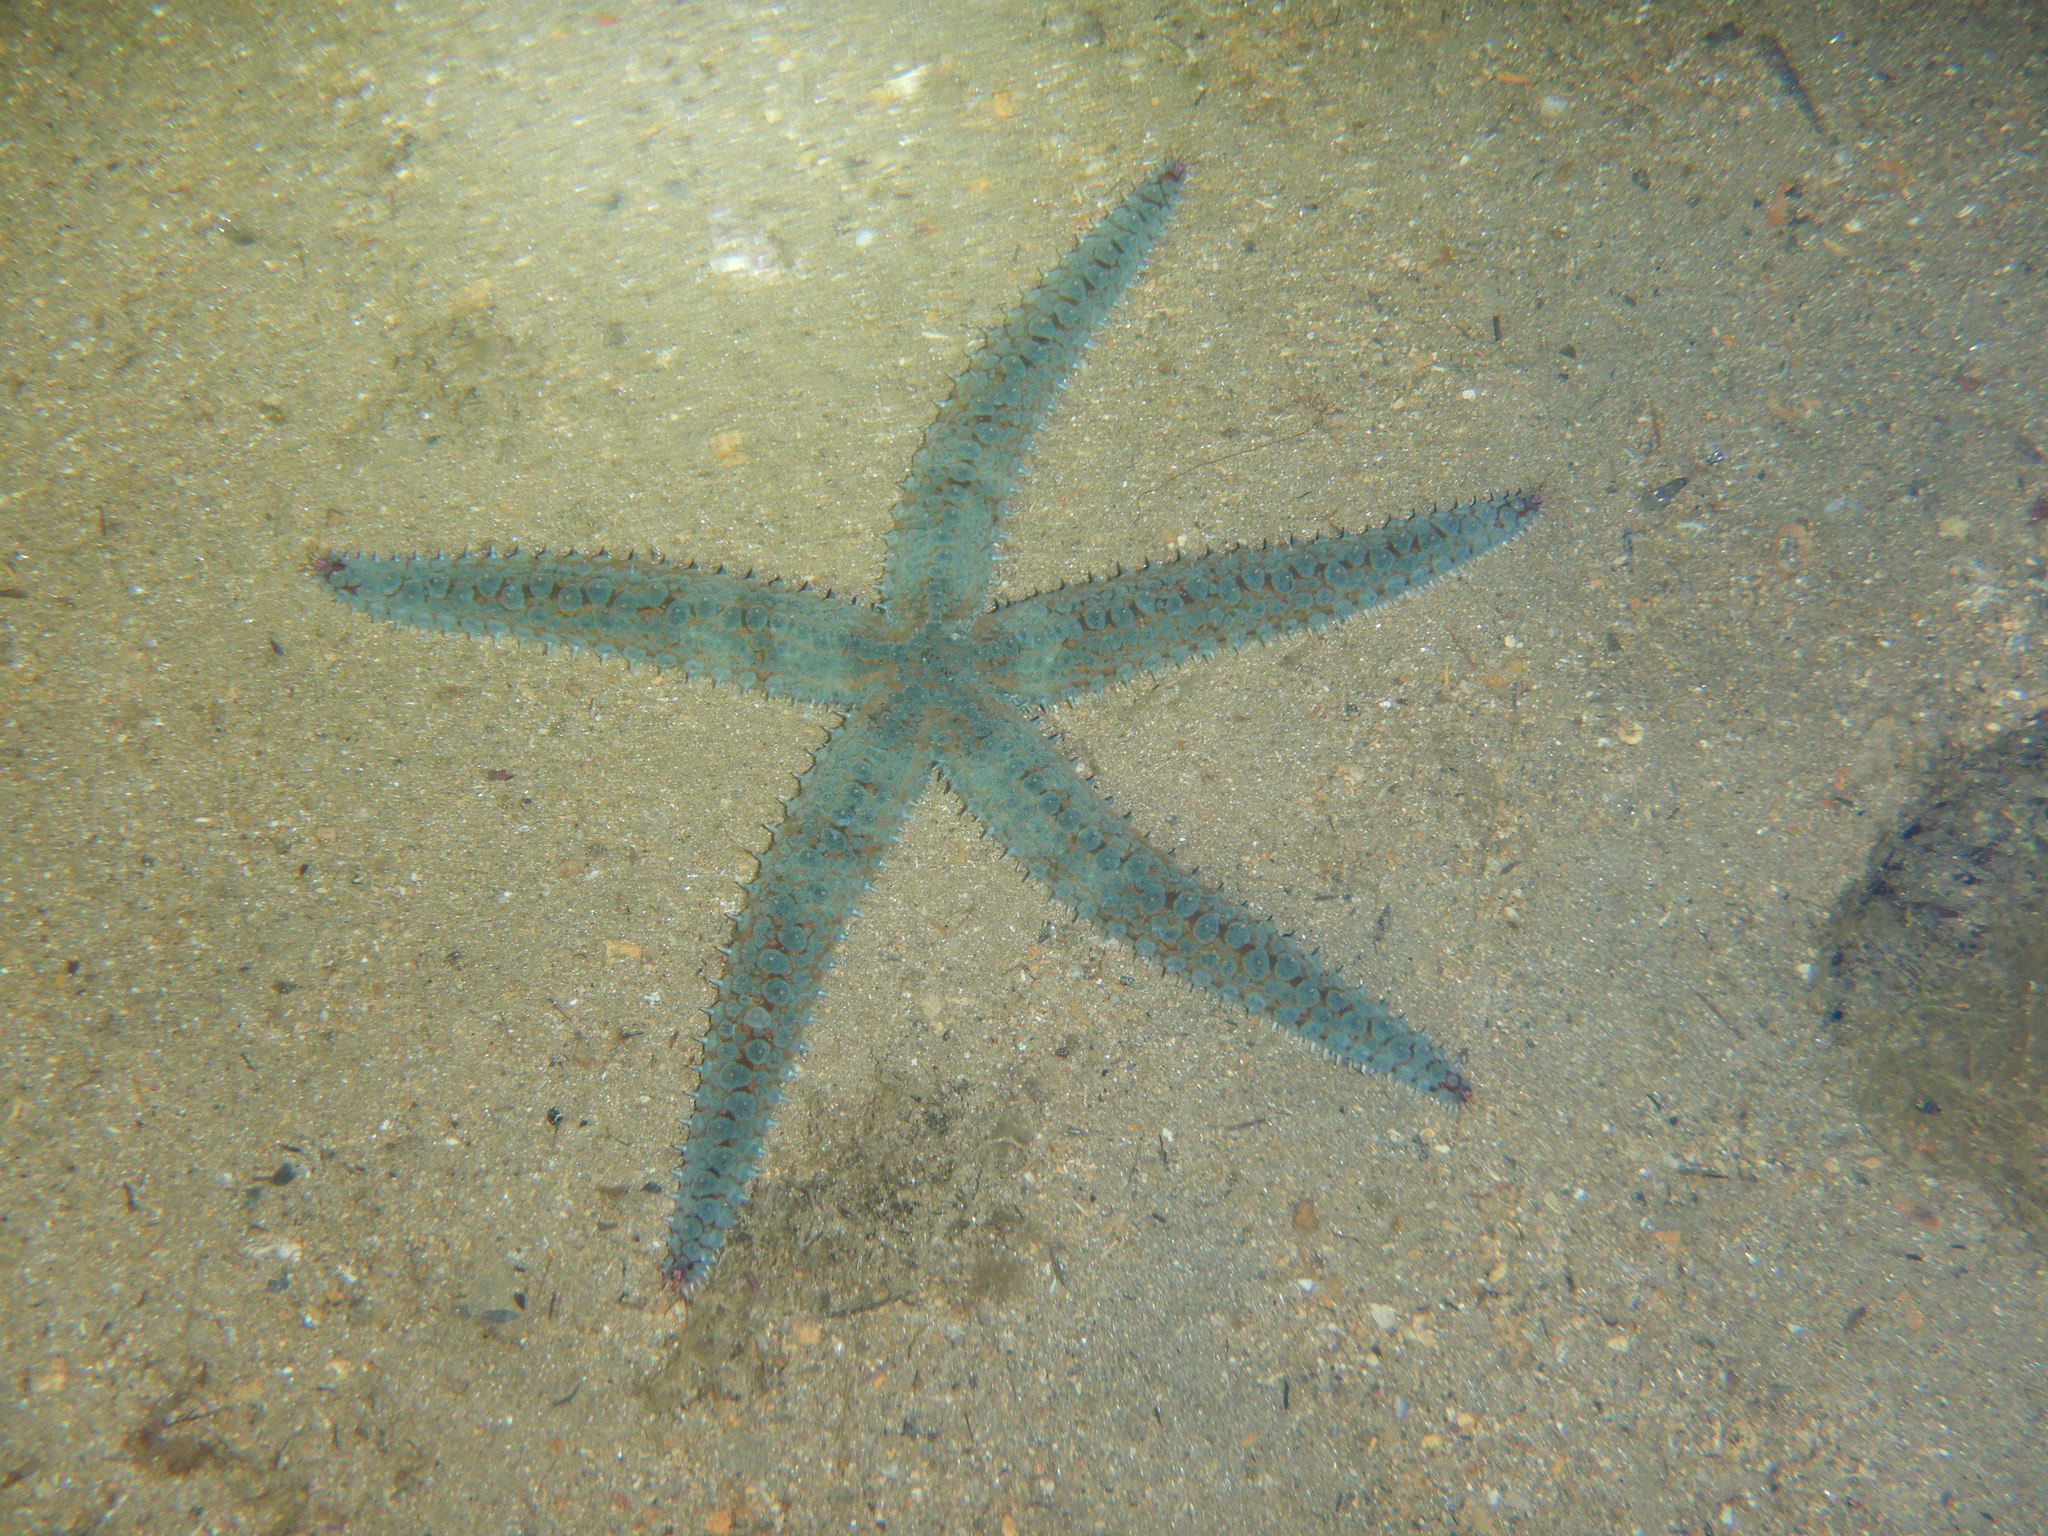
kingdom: Animalia
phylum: Echinodermata
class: Asteroidea
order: Forcipulatida
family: Asteriidae
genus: Marthasterias
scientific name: Marthasterias glacialis
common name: Spiny starfish
